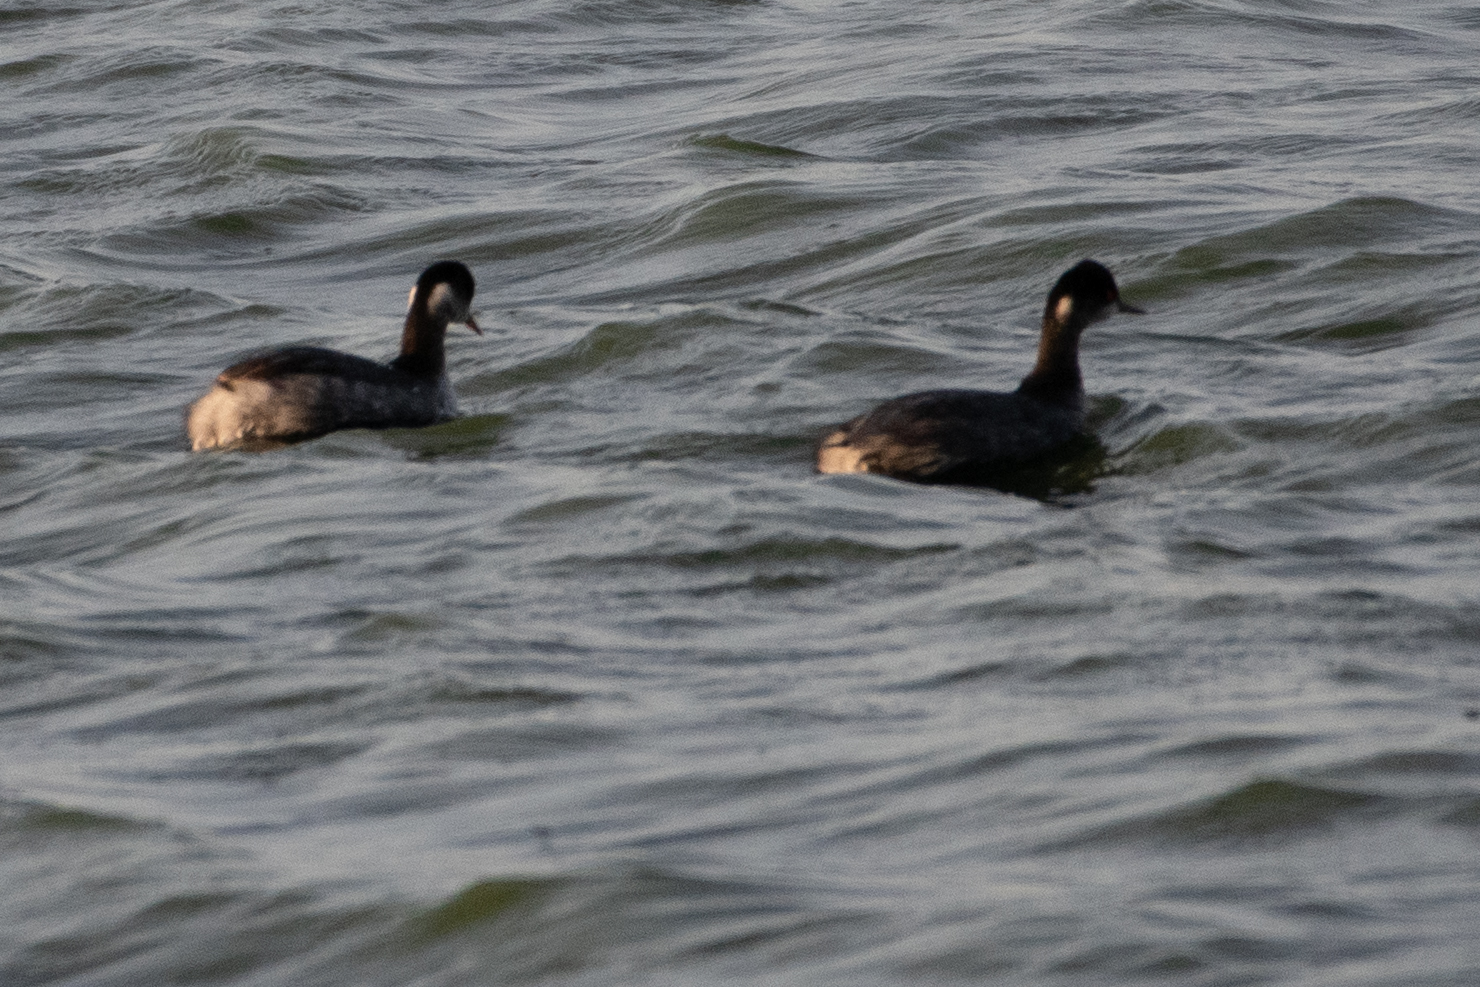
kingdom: Animalia
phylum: Chordata
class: Aves
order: Podicipediformes
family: Podicipedidae
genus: Podiceps
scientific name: Podiceps nigricollis
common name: Black-necked grebe
